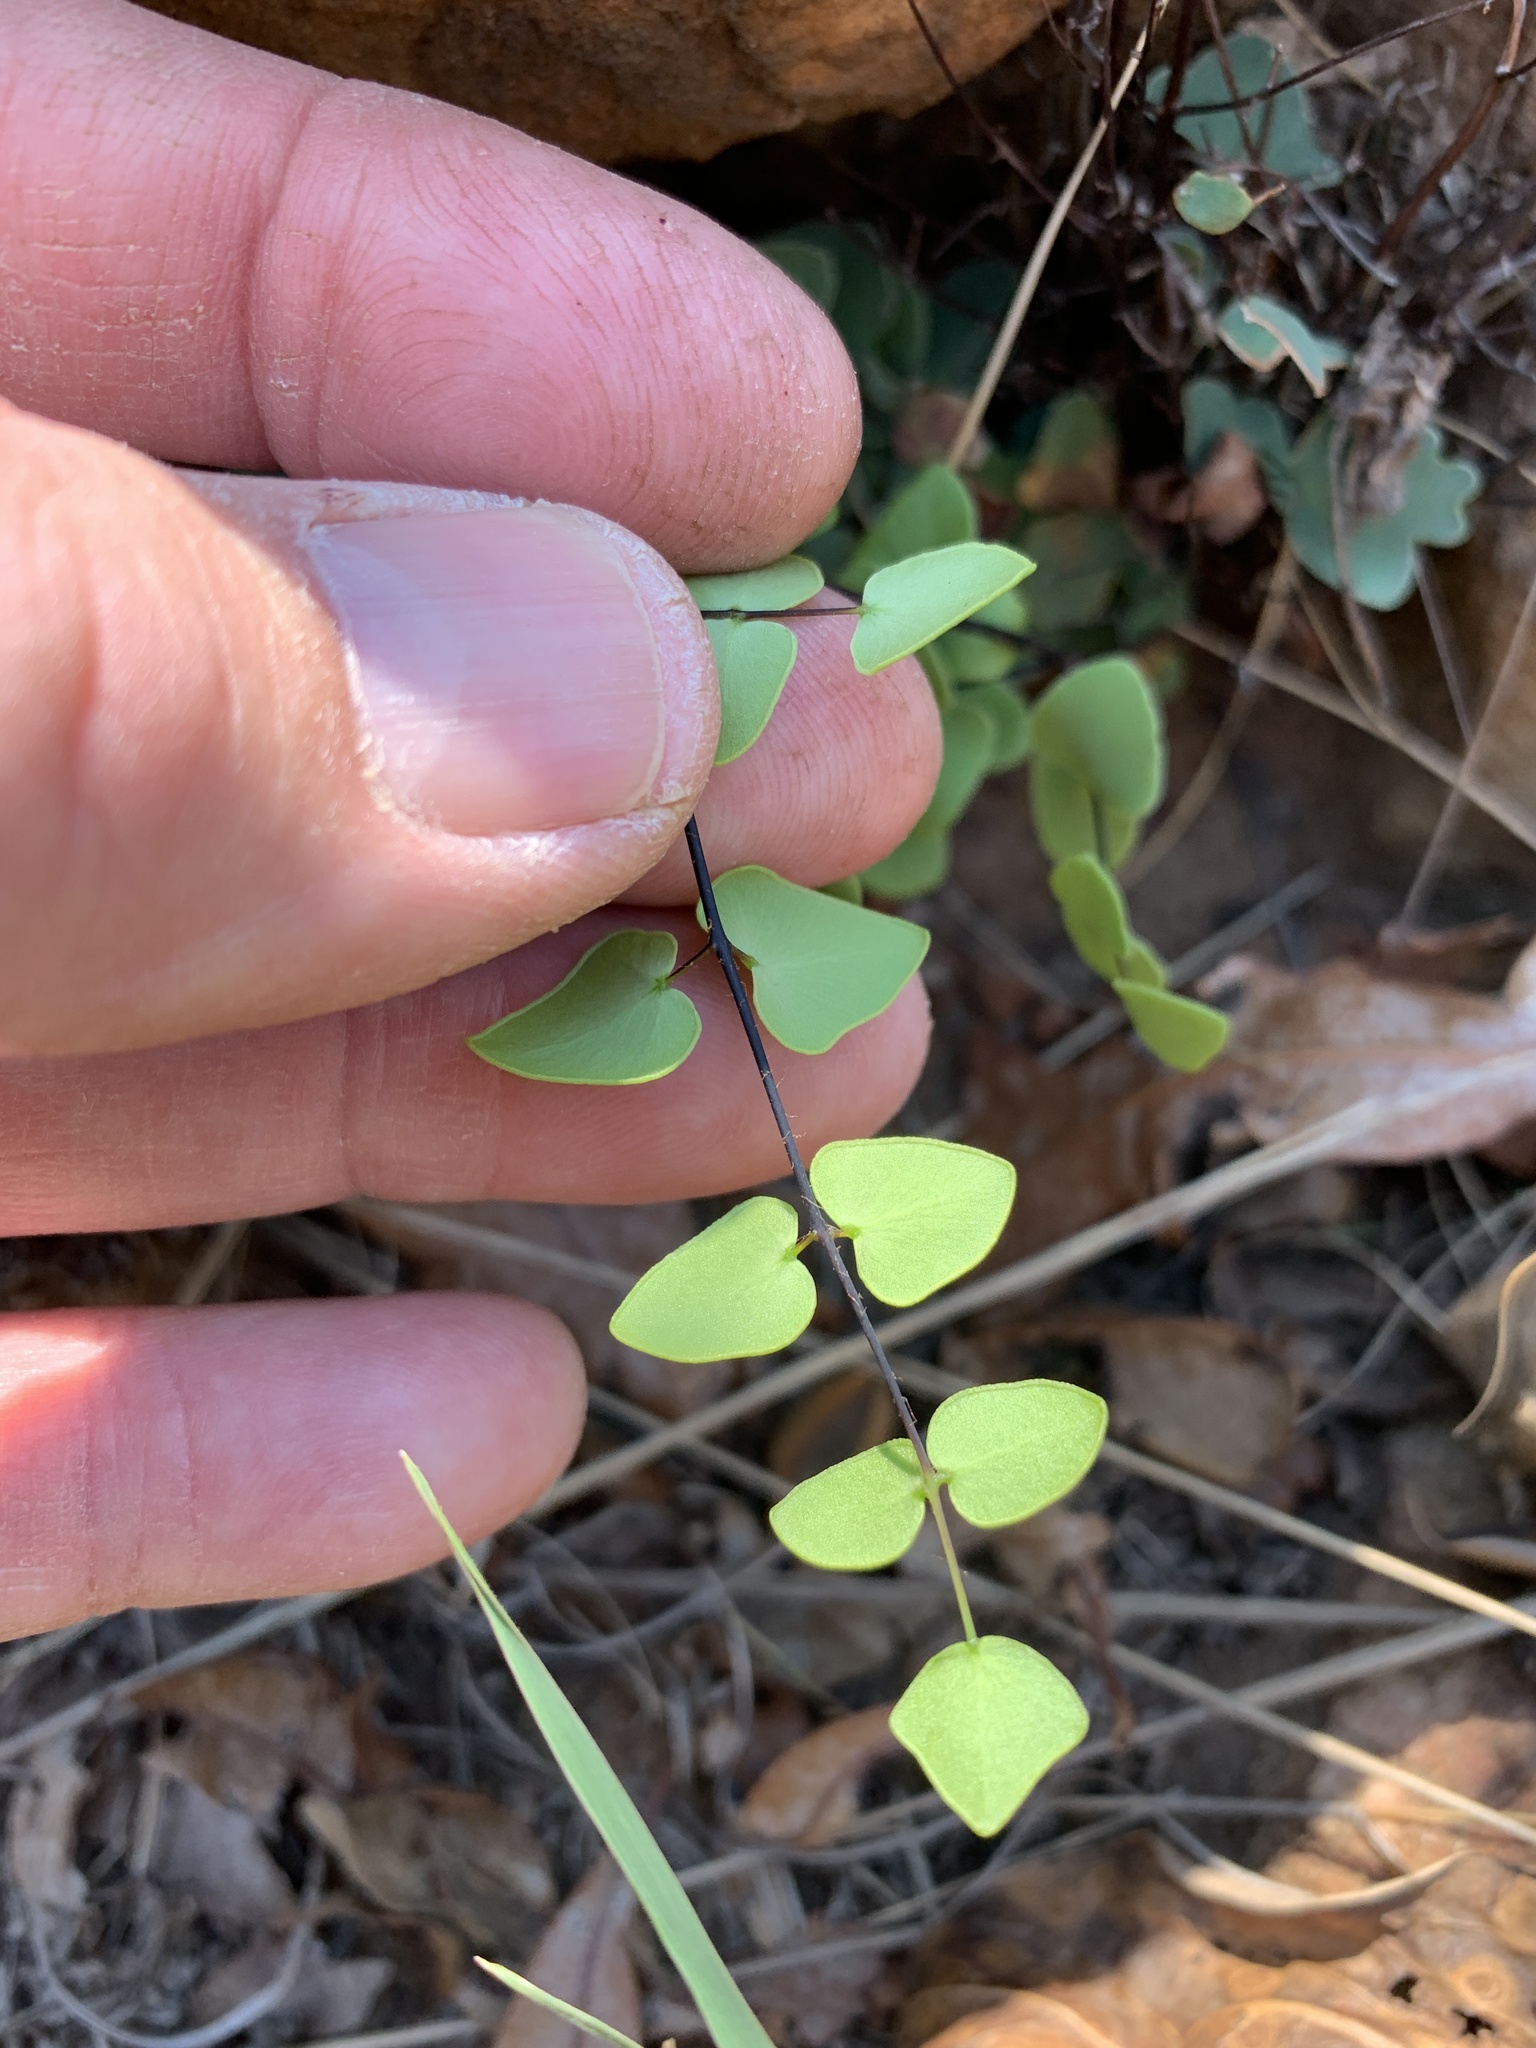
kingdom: Plantae
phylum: Tracheophyta
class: Polypodiopsida
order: Polypodiales
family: Pteridaceae
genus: Pellaea
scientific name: Pellaea calomelanos
